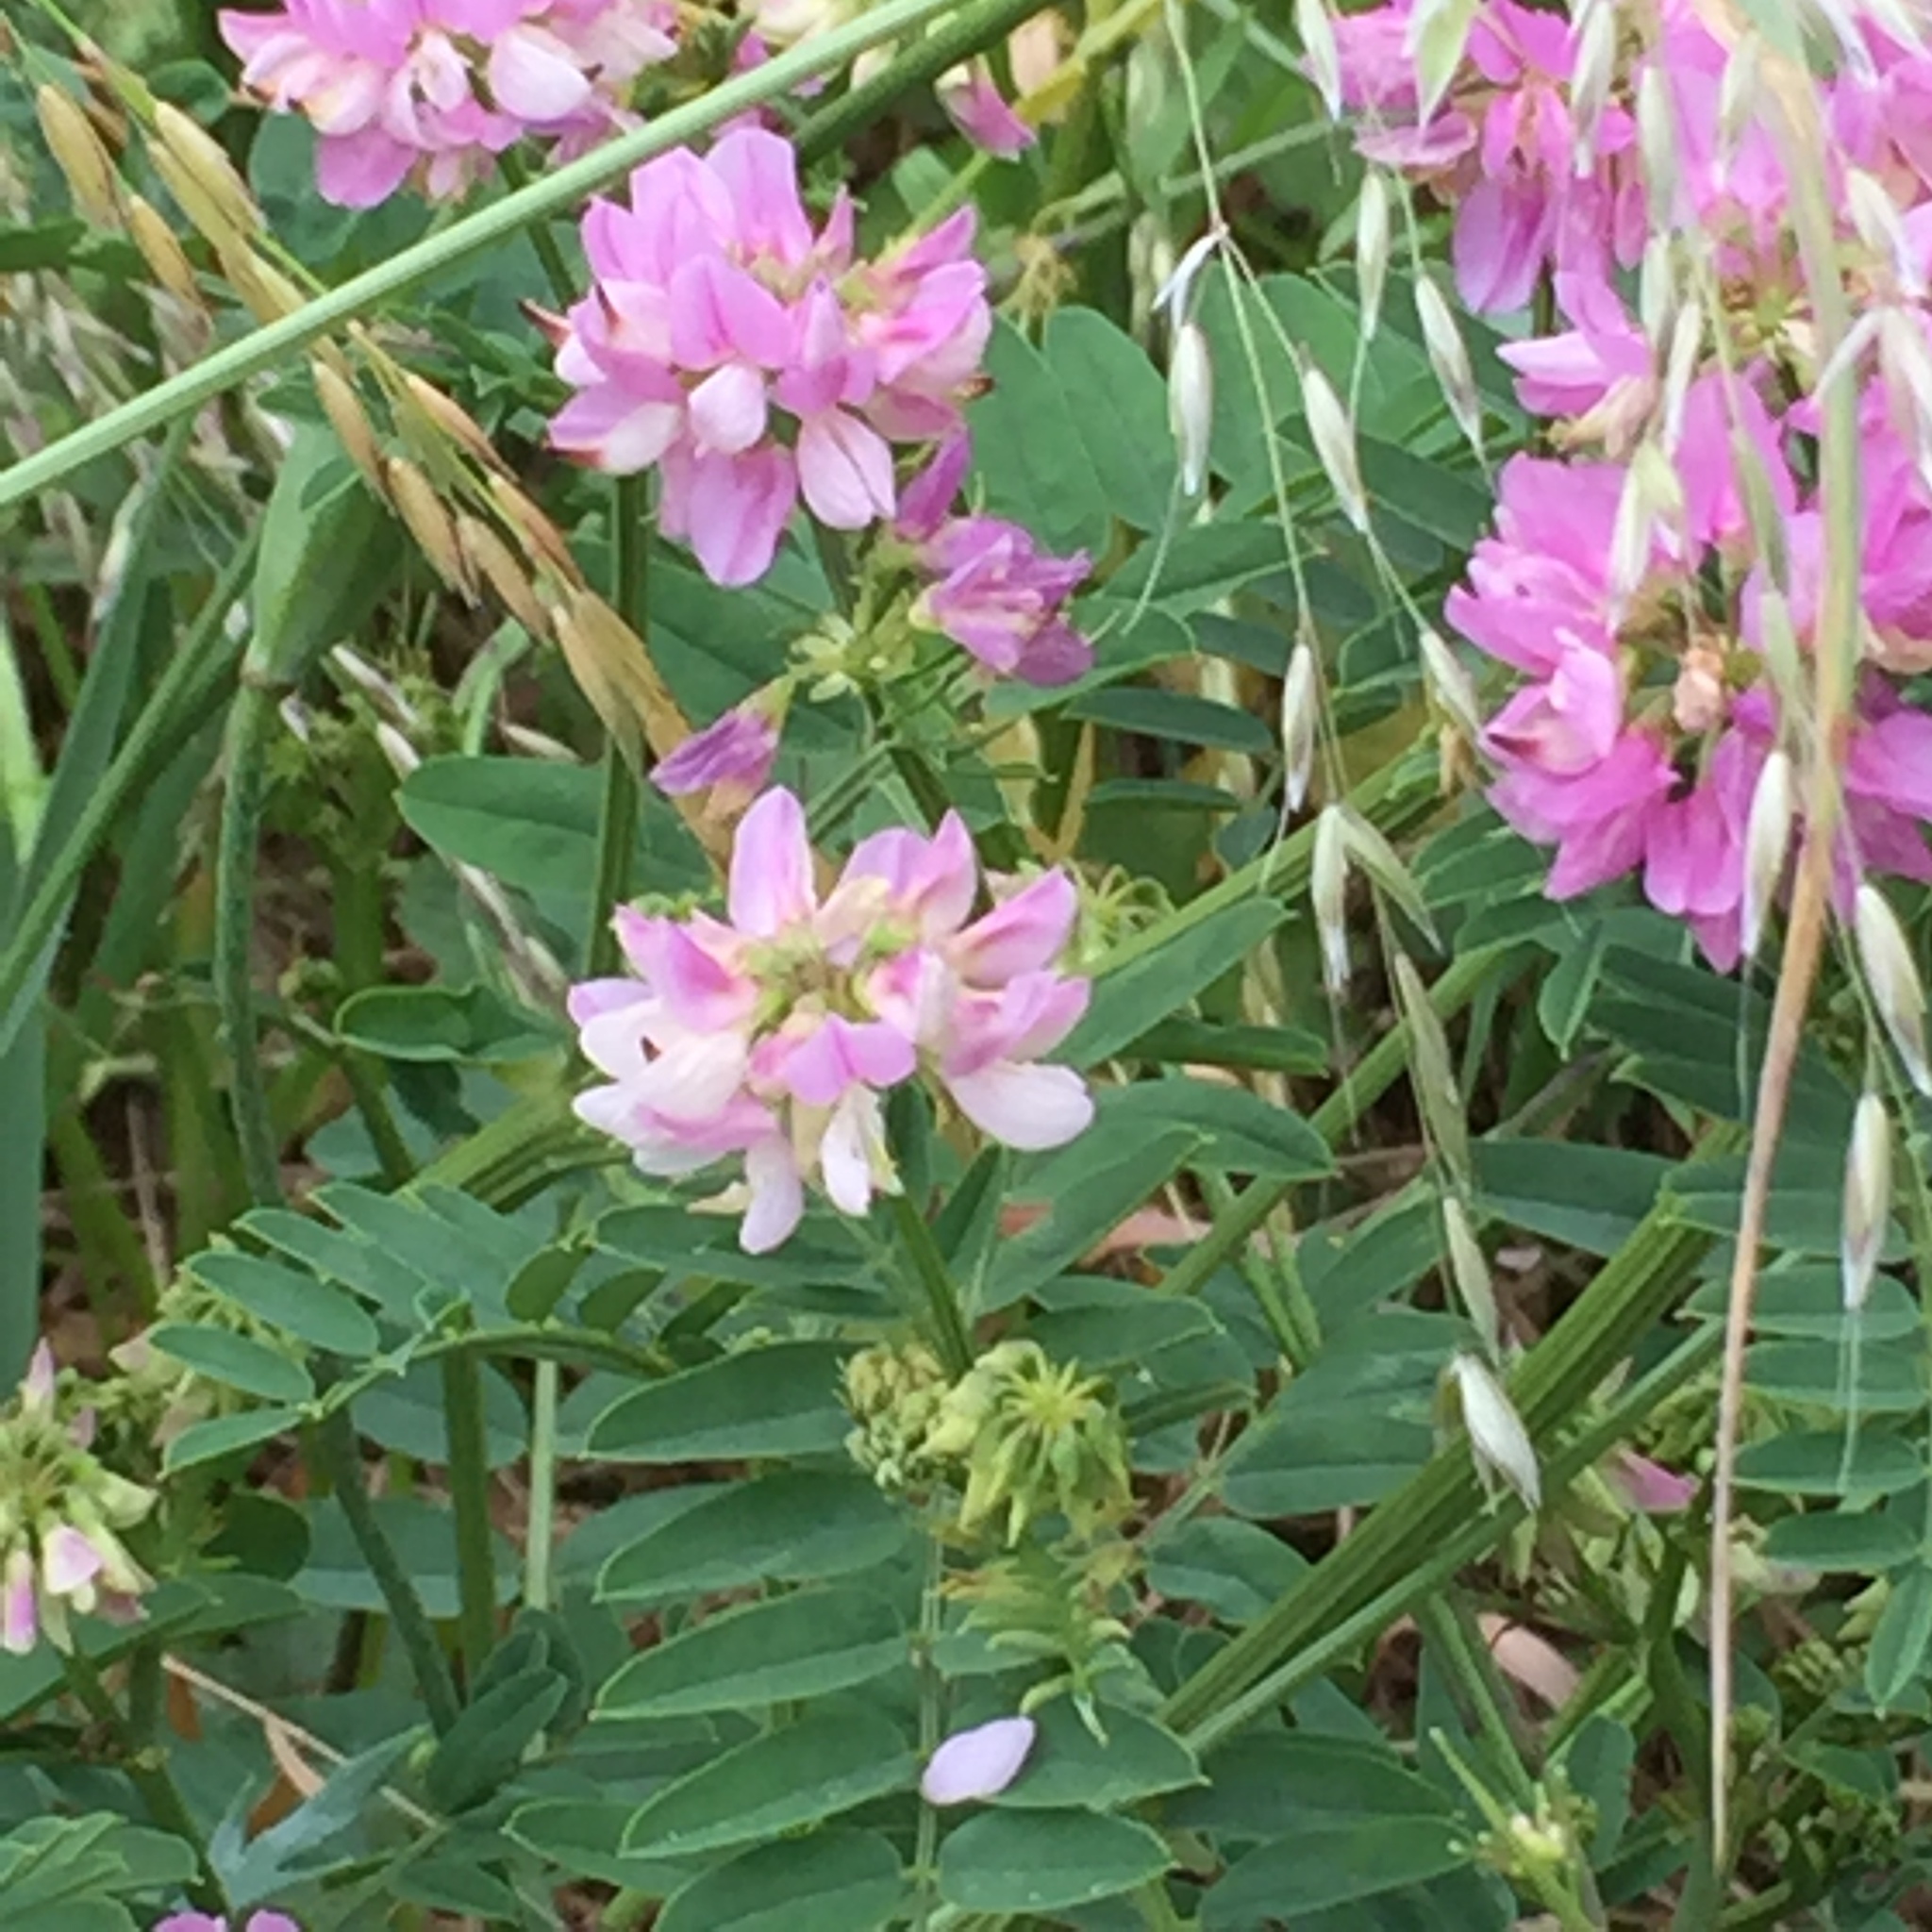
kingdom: Plantae
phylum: Tracheophyta
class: Magnoliopsida
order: Fabales
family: Fabaceae
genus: Coronilla
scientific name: Coronilla varia
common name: Crownvetch
